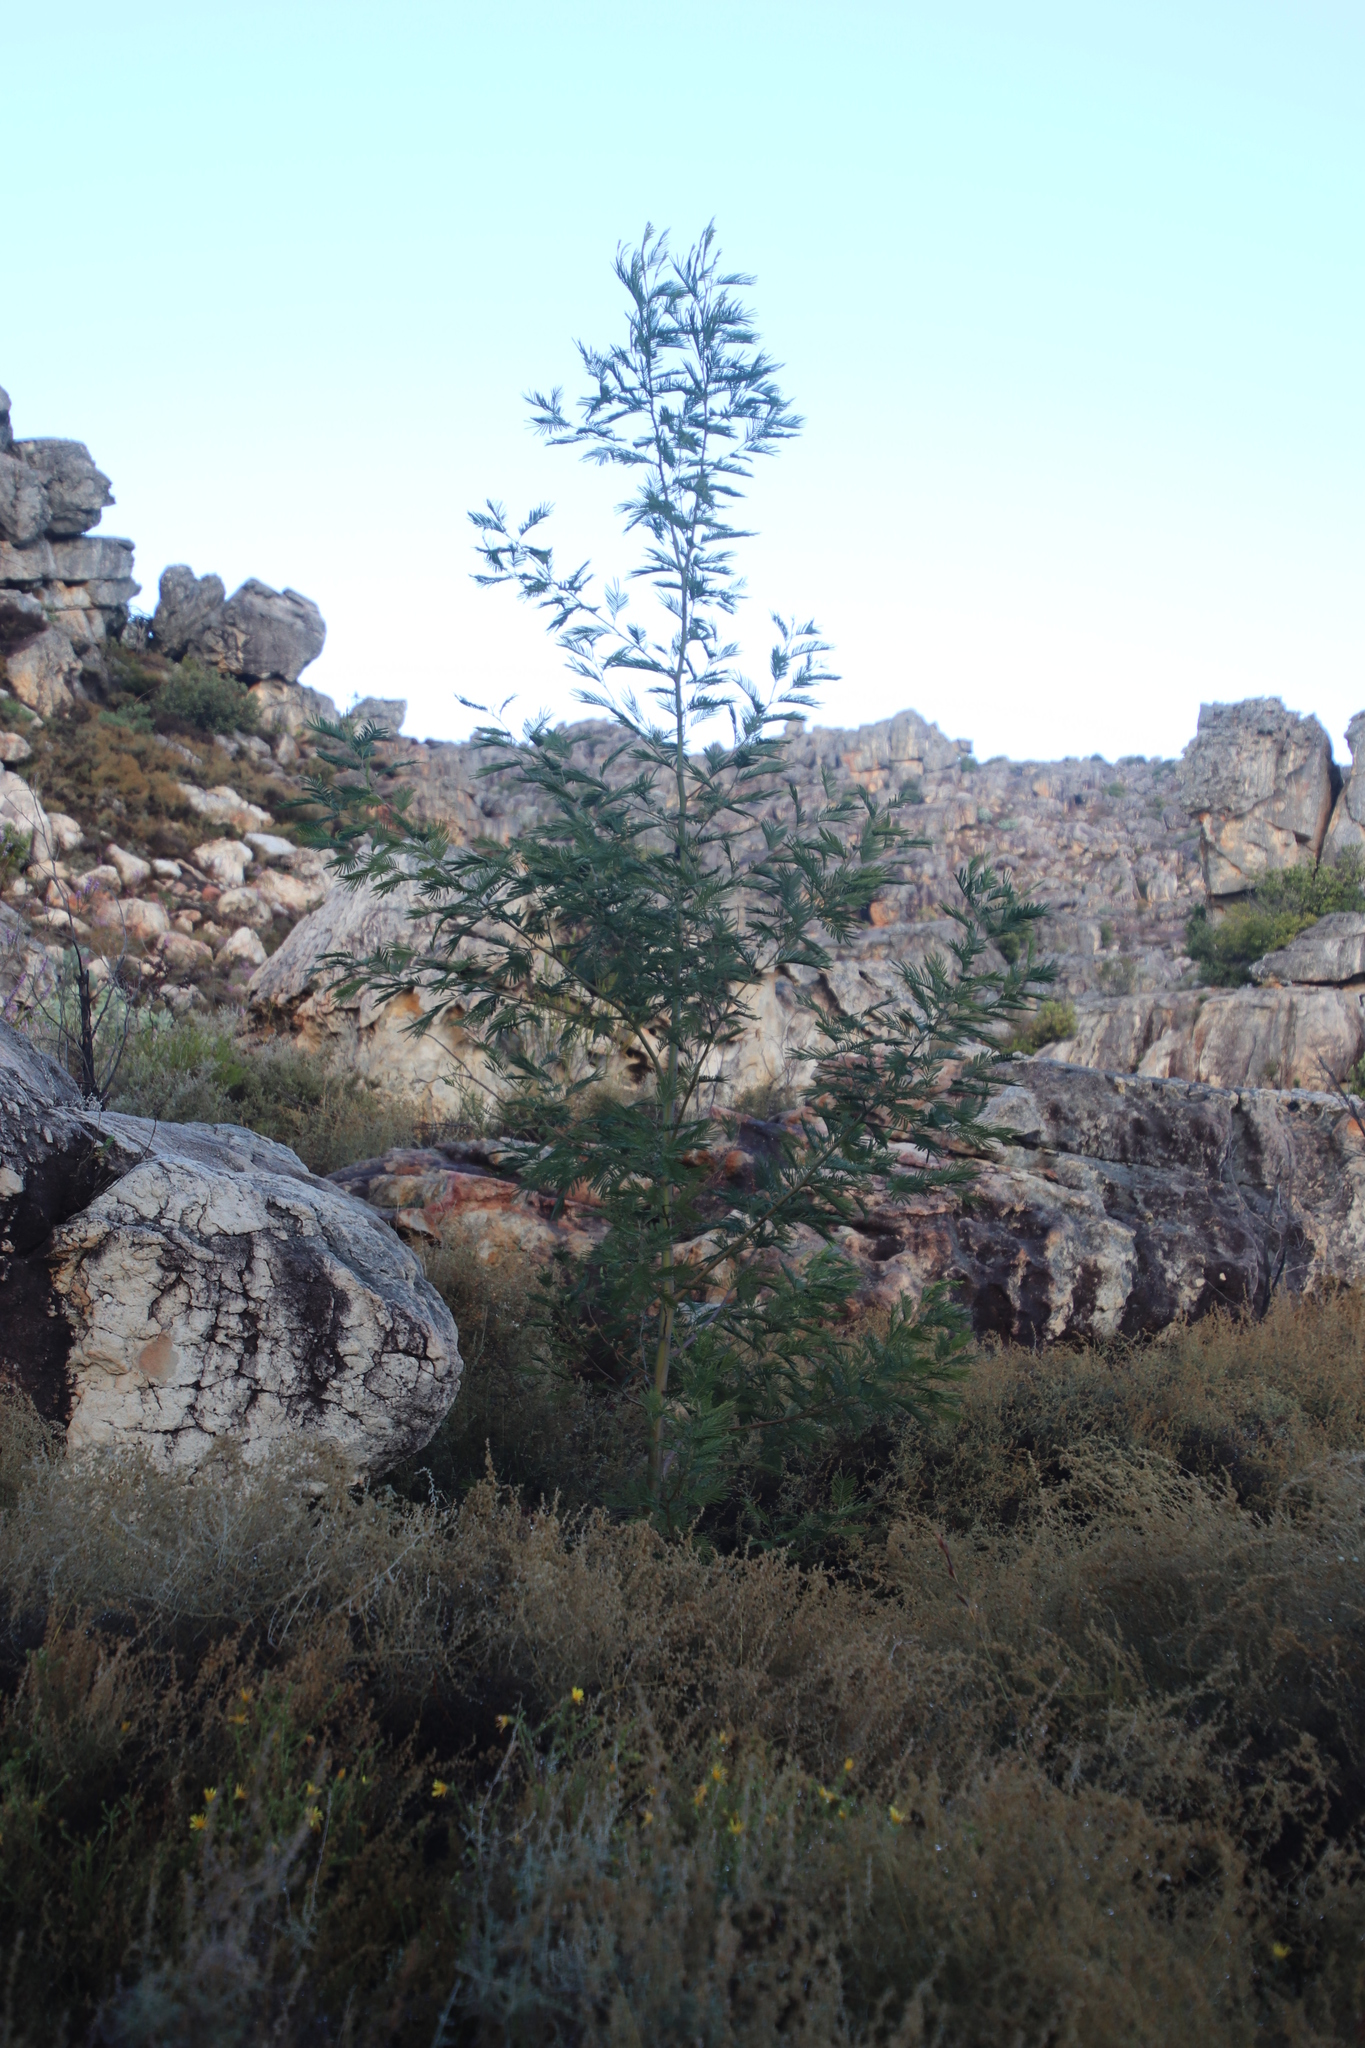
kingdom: Plantae
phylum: Tracheophyta
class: Magnoliopsida
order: Fabales
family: Fabaceae
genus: Acacia
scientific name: Acacia mearnsii
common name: Black wattle
